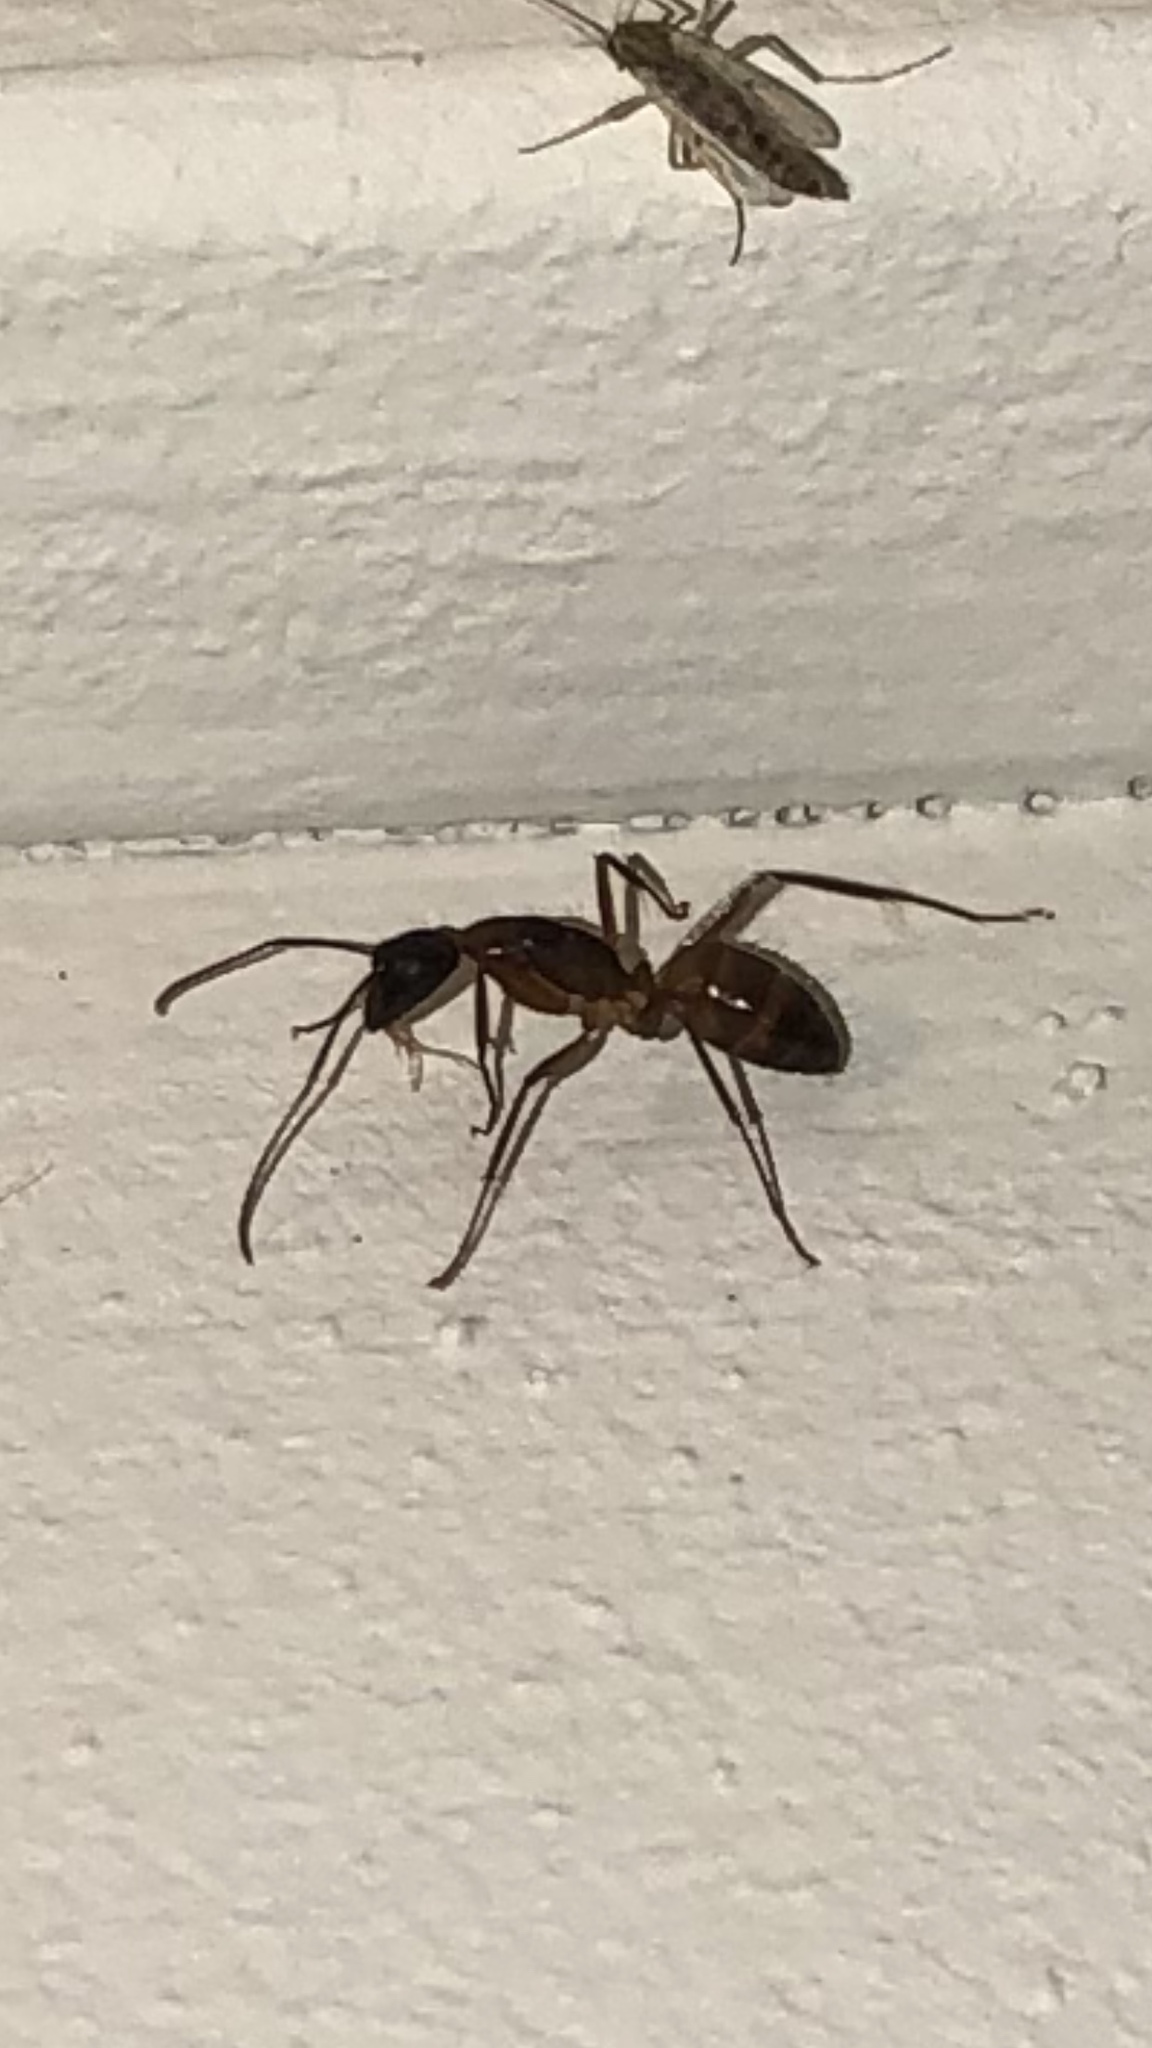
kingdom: Animalia
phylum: Arthropoda
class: Insecta
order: Hymenoptera
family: Formicidae
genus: Camponotus
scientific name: Camponotus americanus
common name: American carpenter ant
